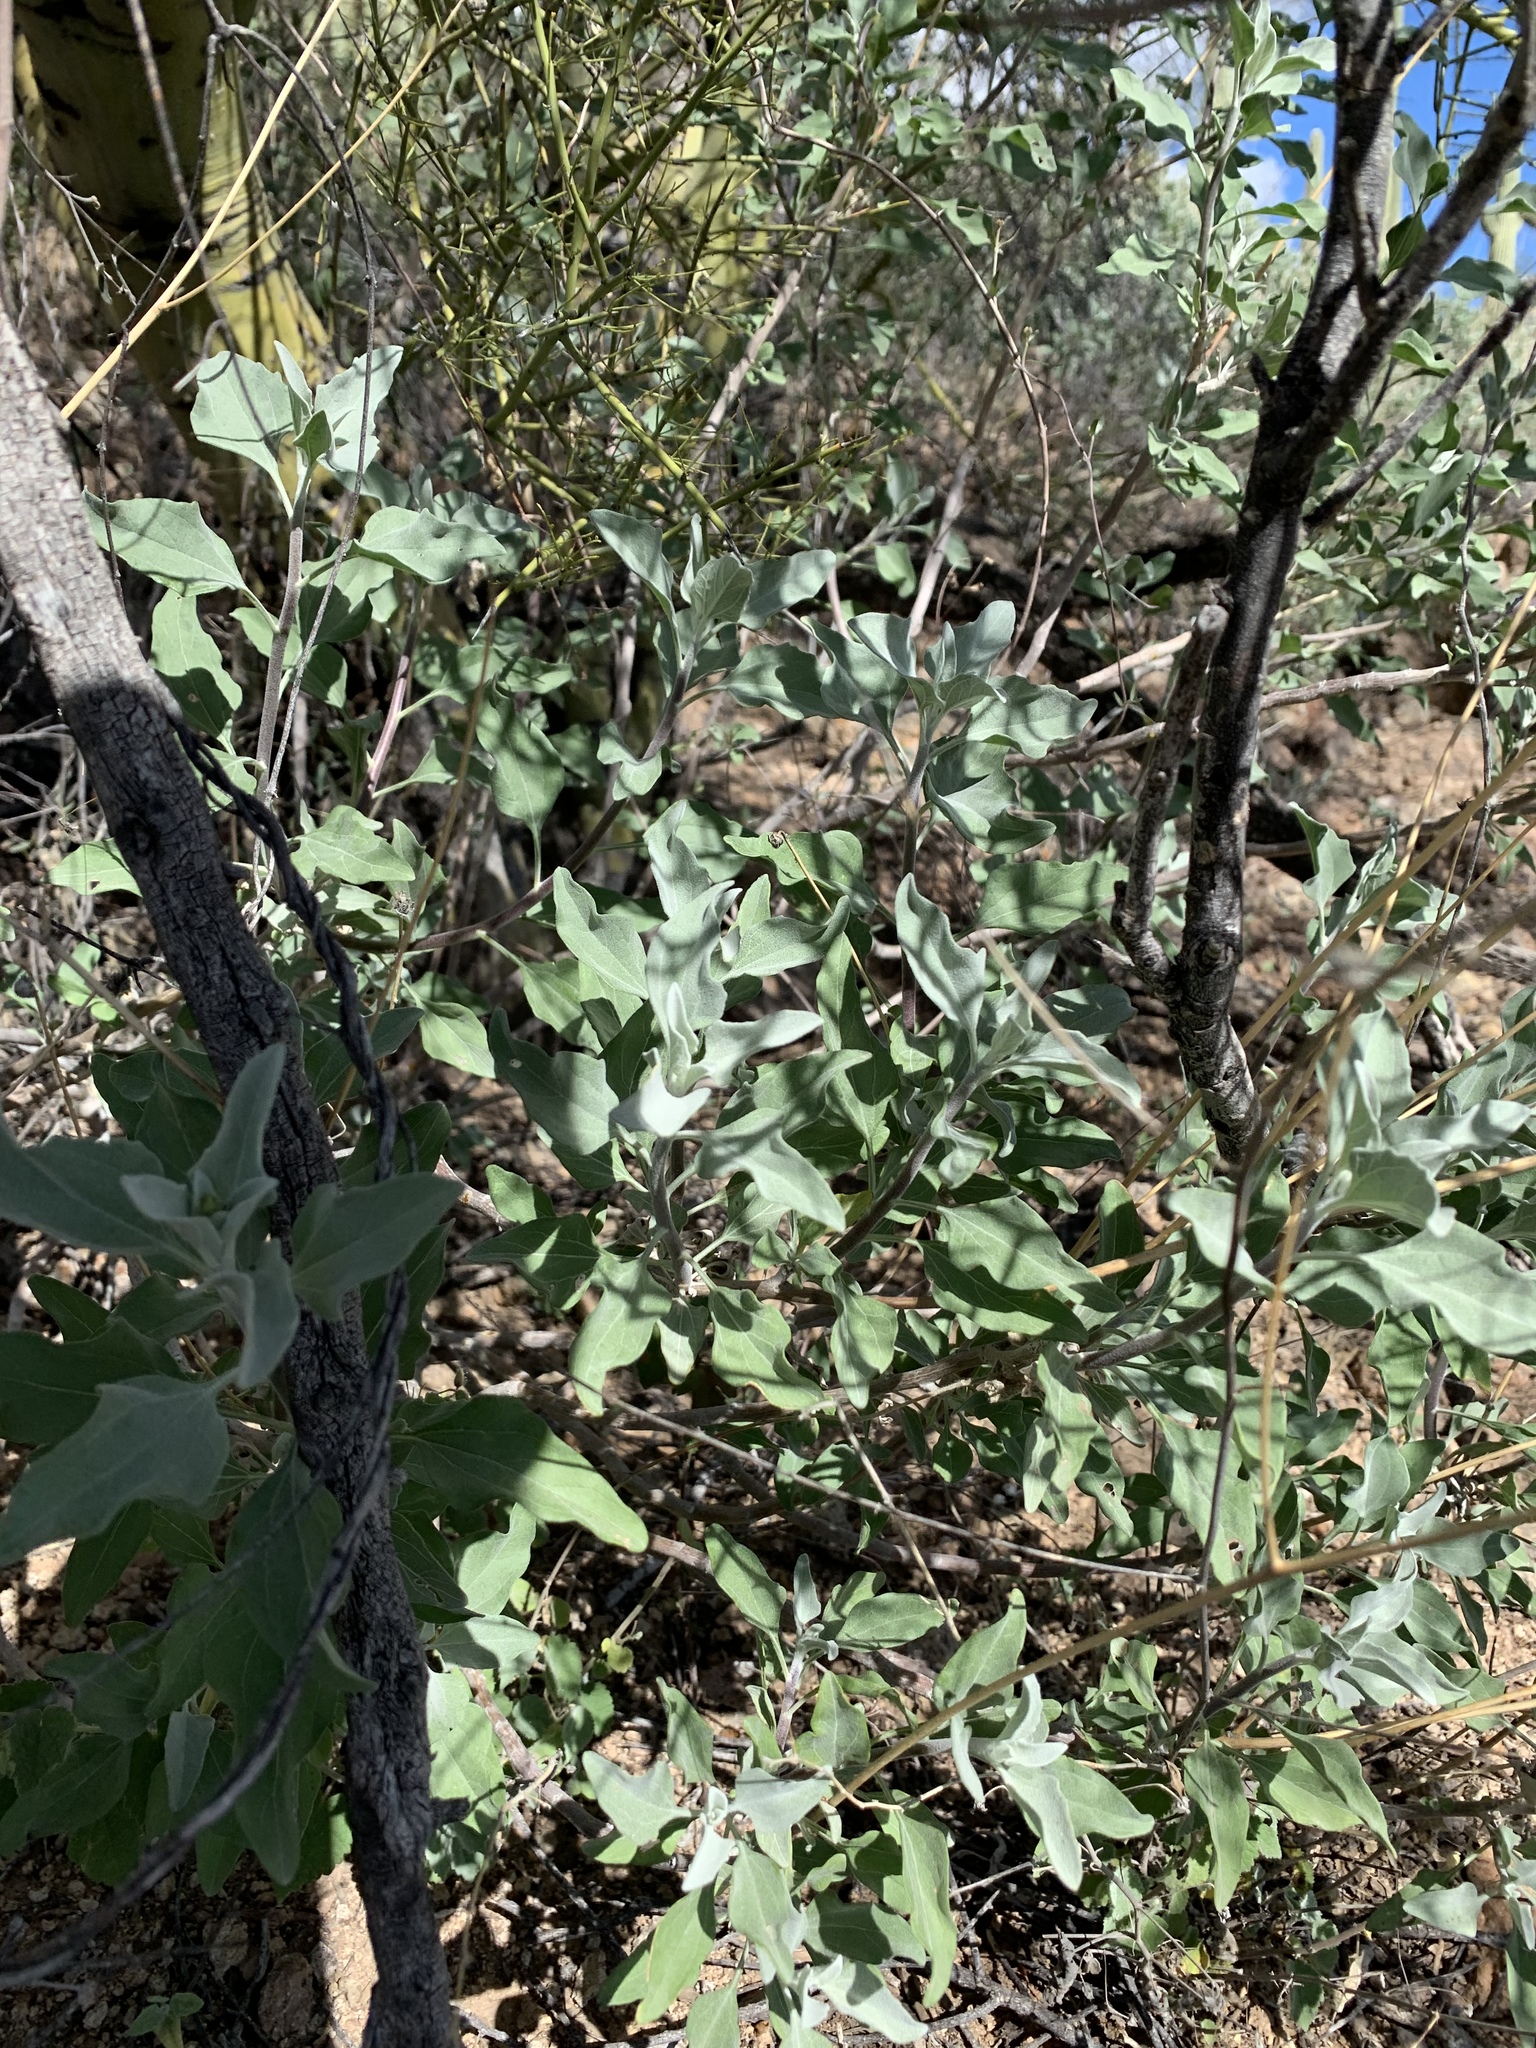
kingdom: Plantae
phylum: Tracheophyta
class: Magnoliopsida
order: Asterales
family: Asteraceae
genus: Encelia
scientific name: Encelia farinosa
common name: Brittlebush
